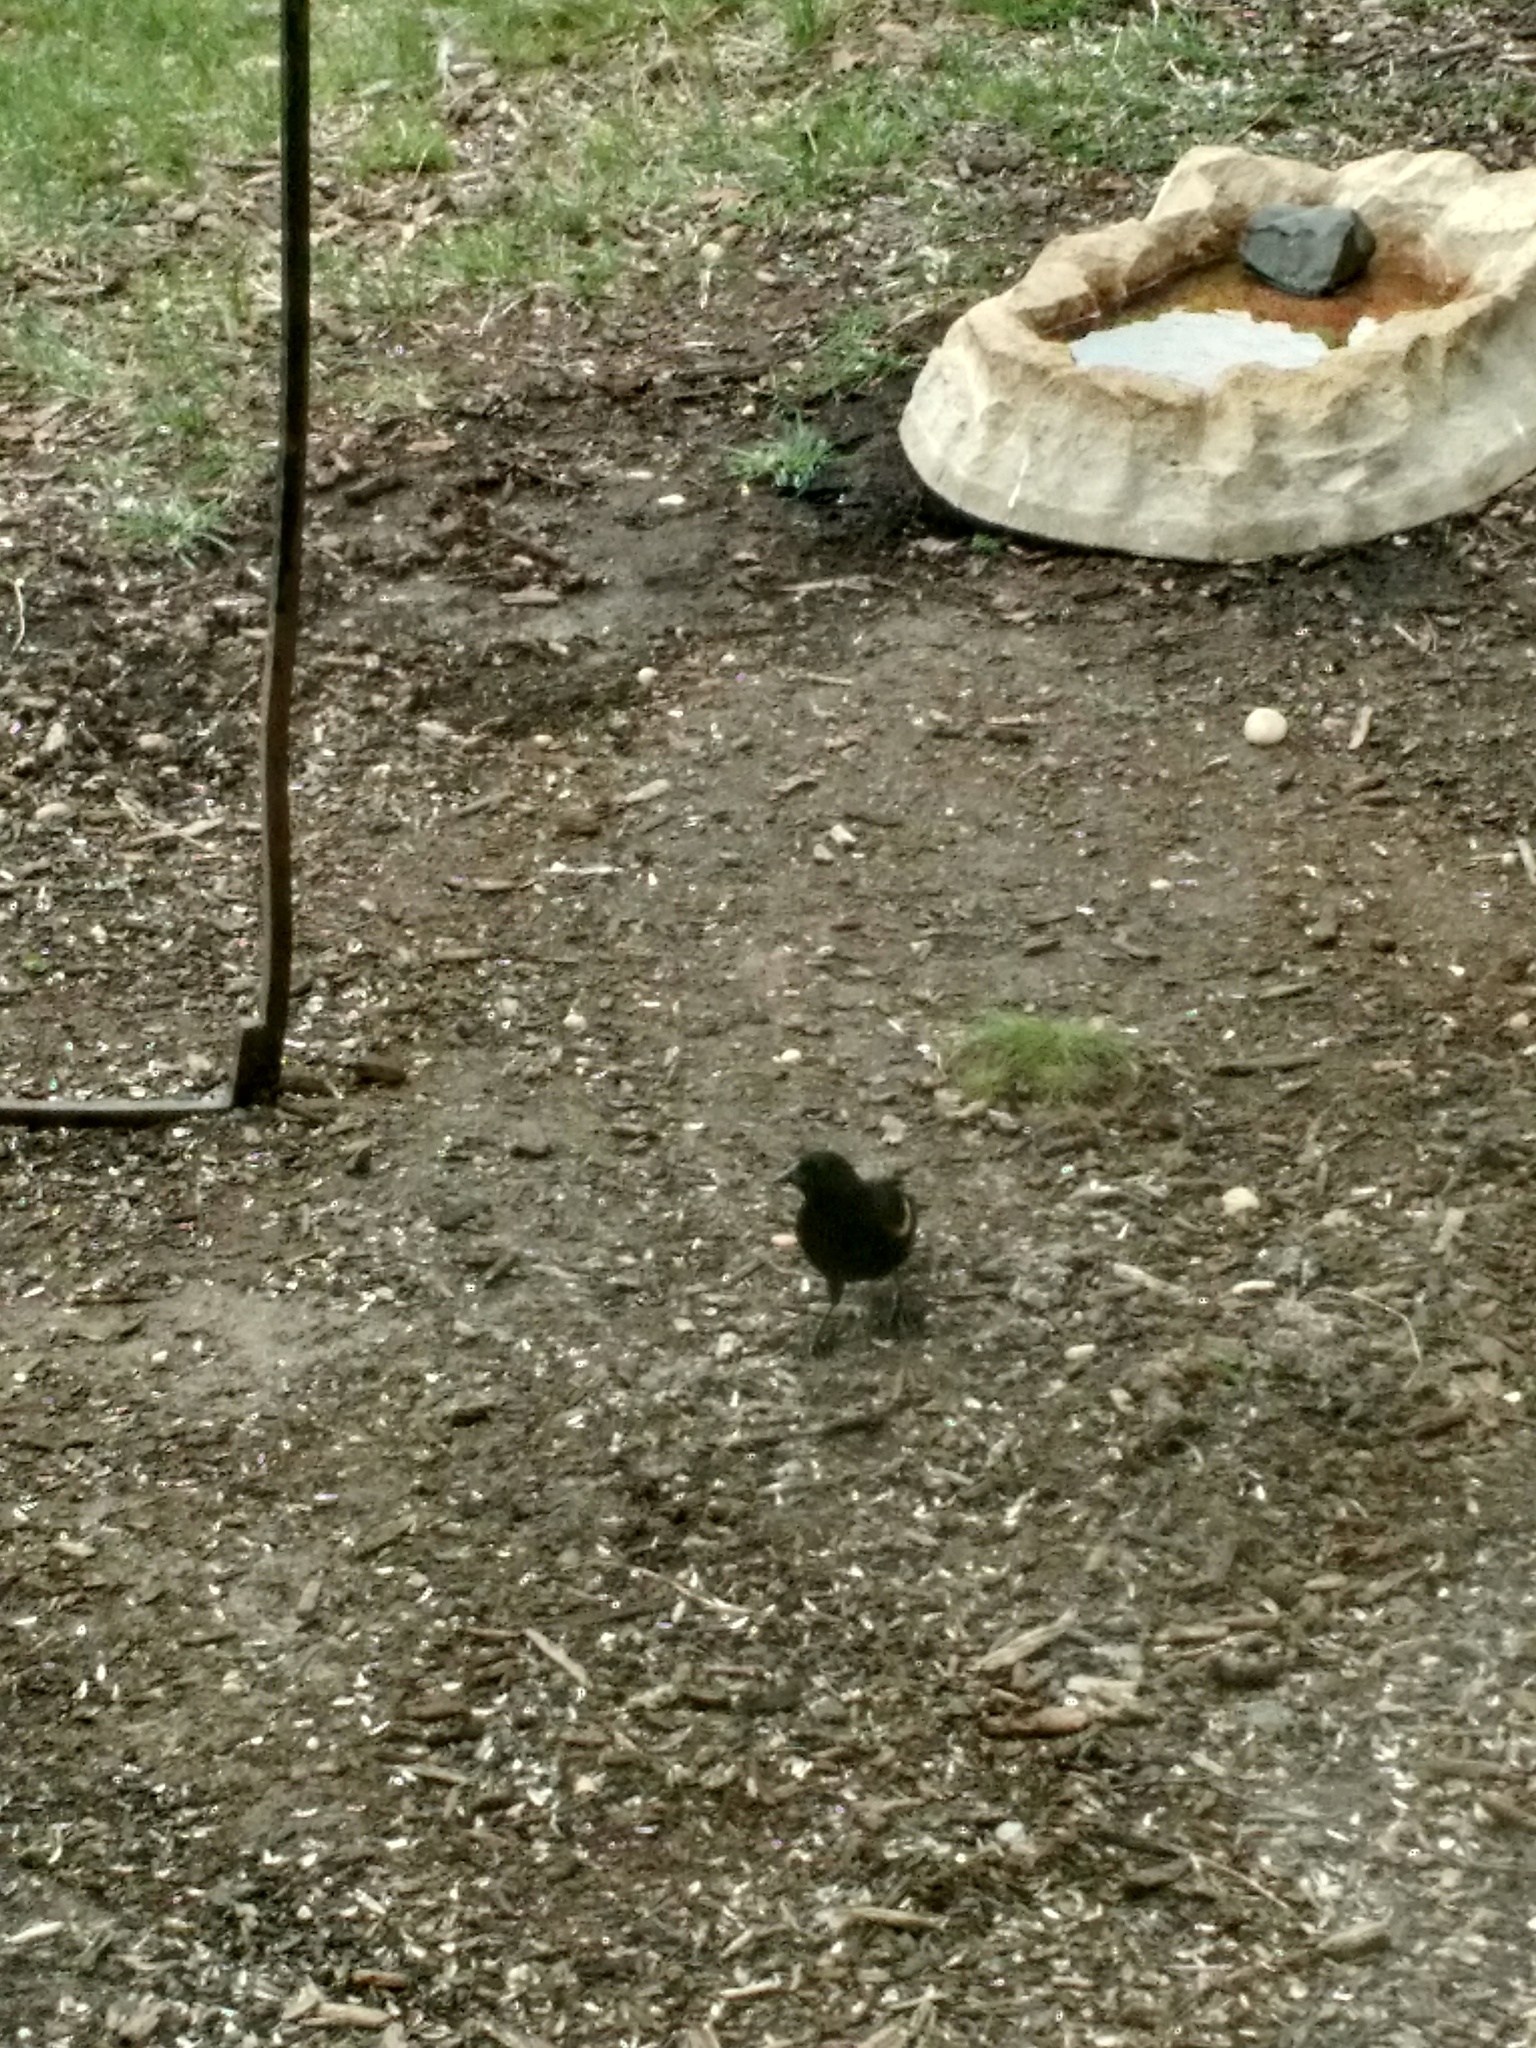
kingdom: Animalia
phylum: Chordata
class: Aves
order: Passeriformes
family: Icteridae
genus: Agelaius
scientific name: Agelaius phoeniceus
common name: Red-winged blackbird
